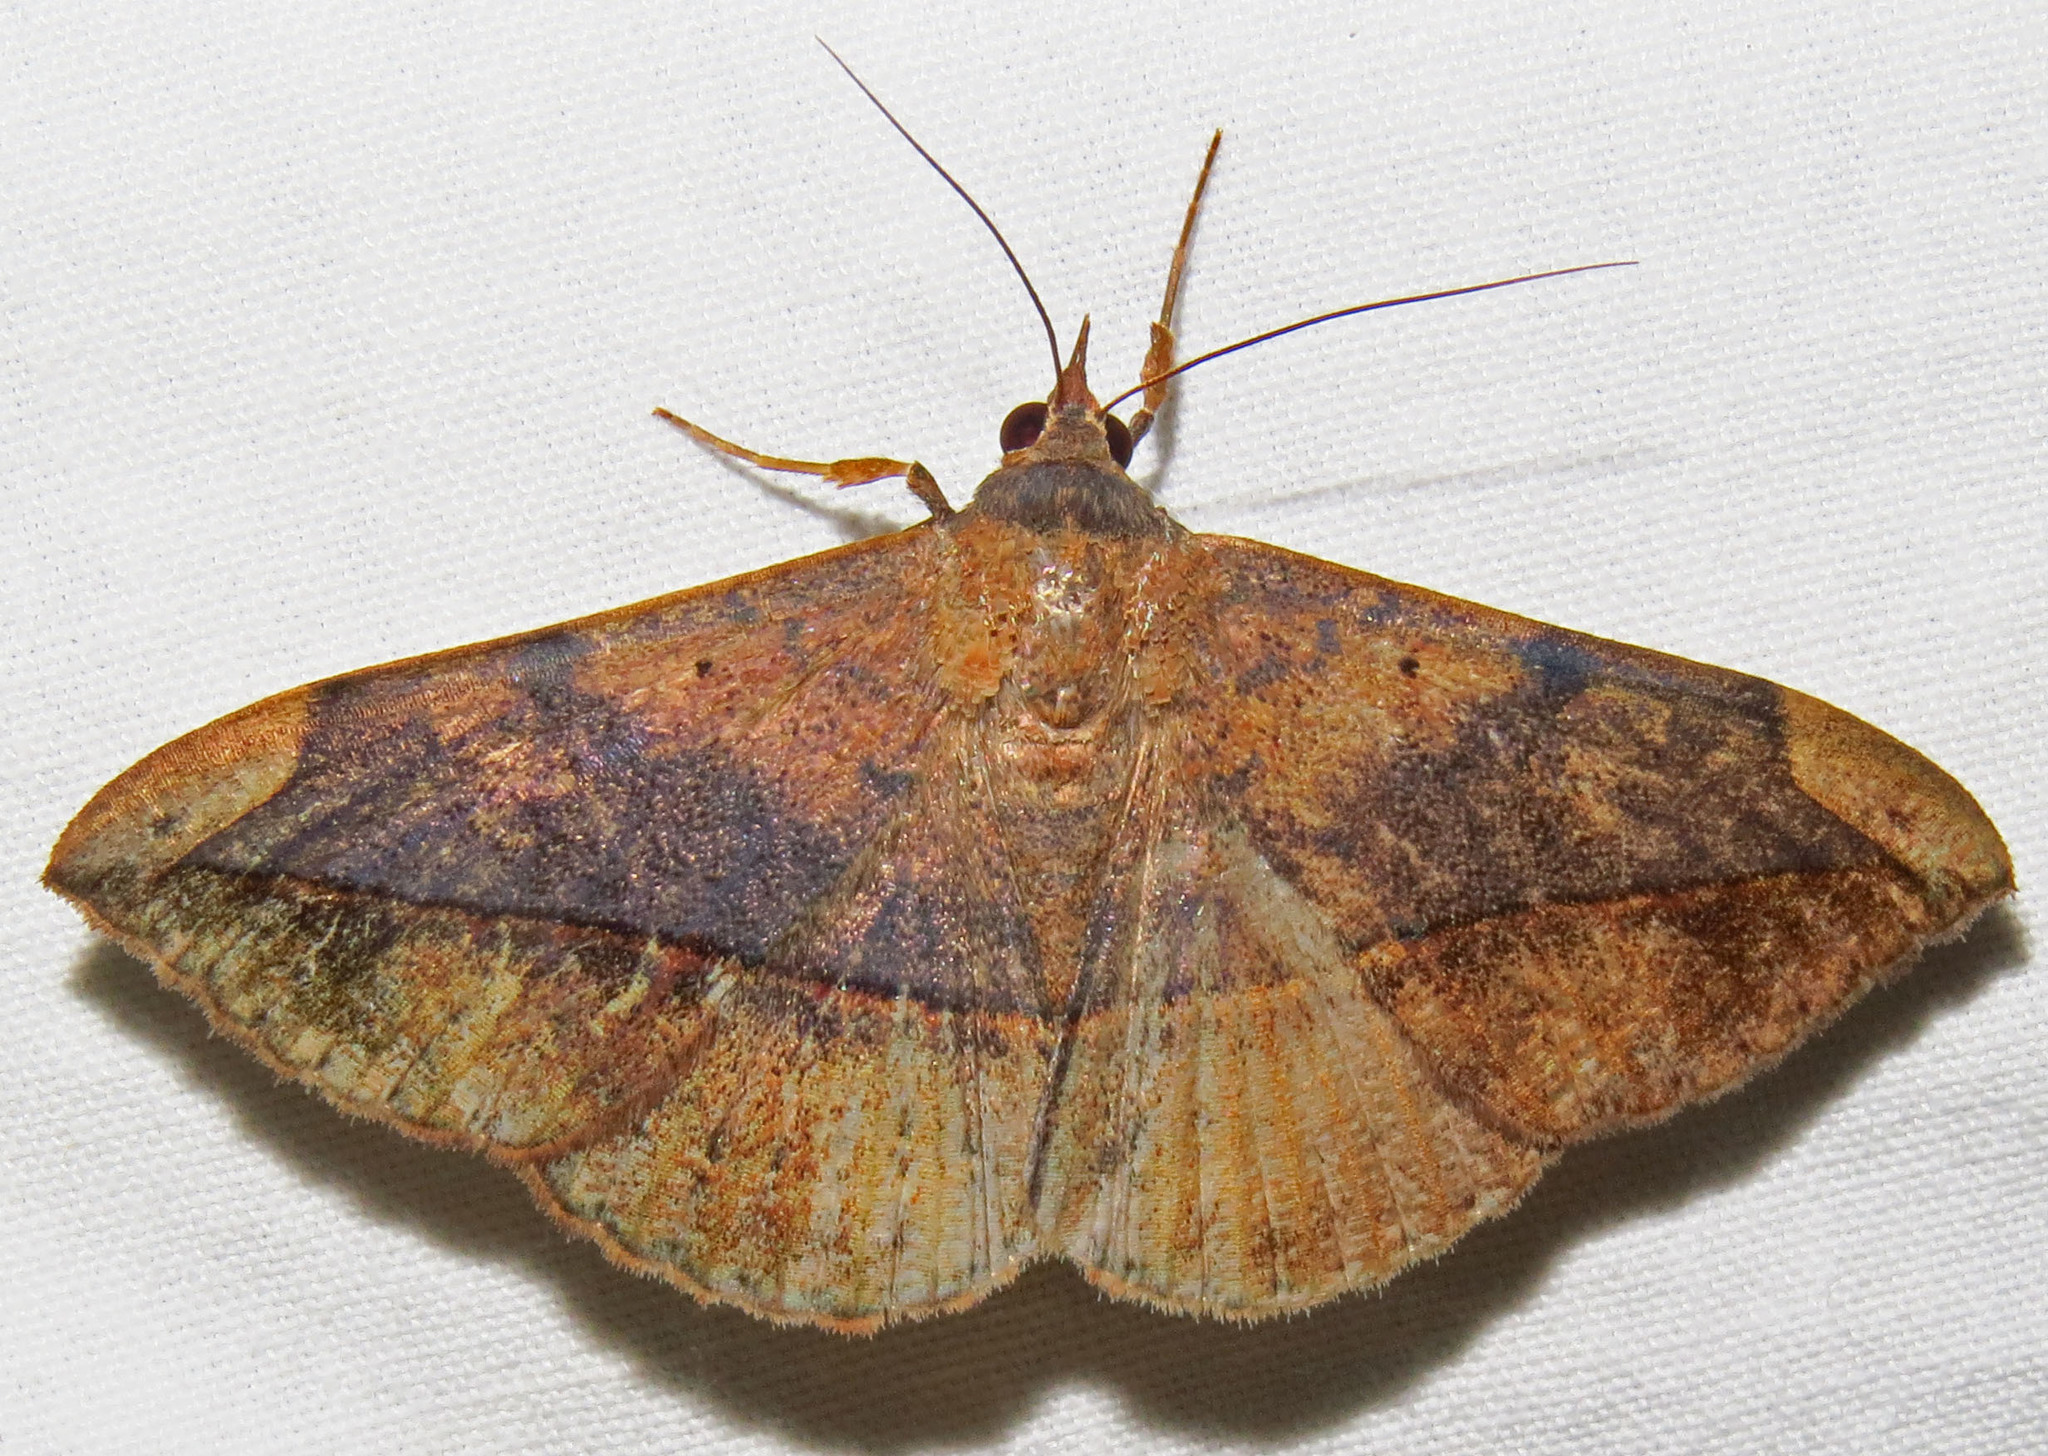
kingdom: Animalia
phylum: Arthropoda
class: Insecta
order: Lepidoptera
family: Erebidae
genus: Anticarsia
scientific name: Anticarsia gemmatalis
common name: Cutworm moth
